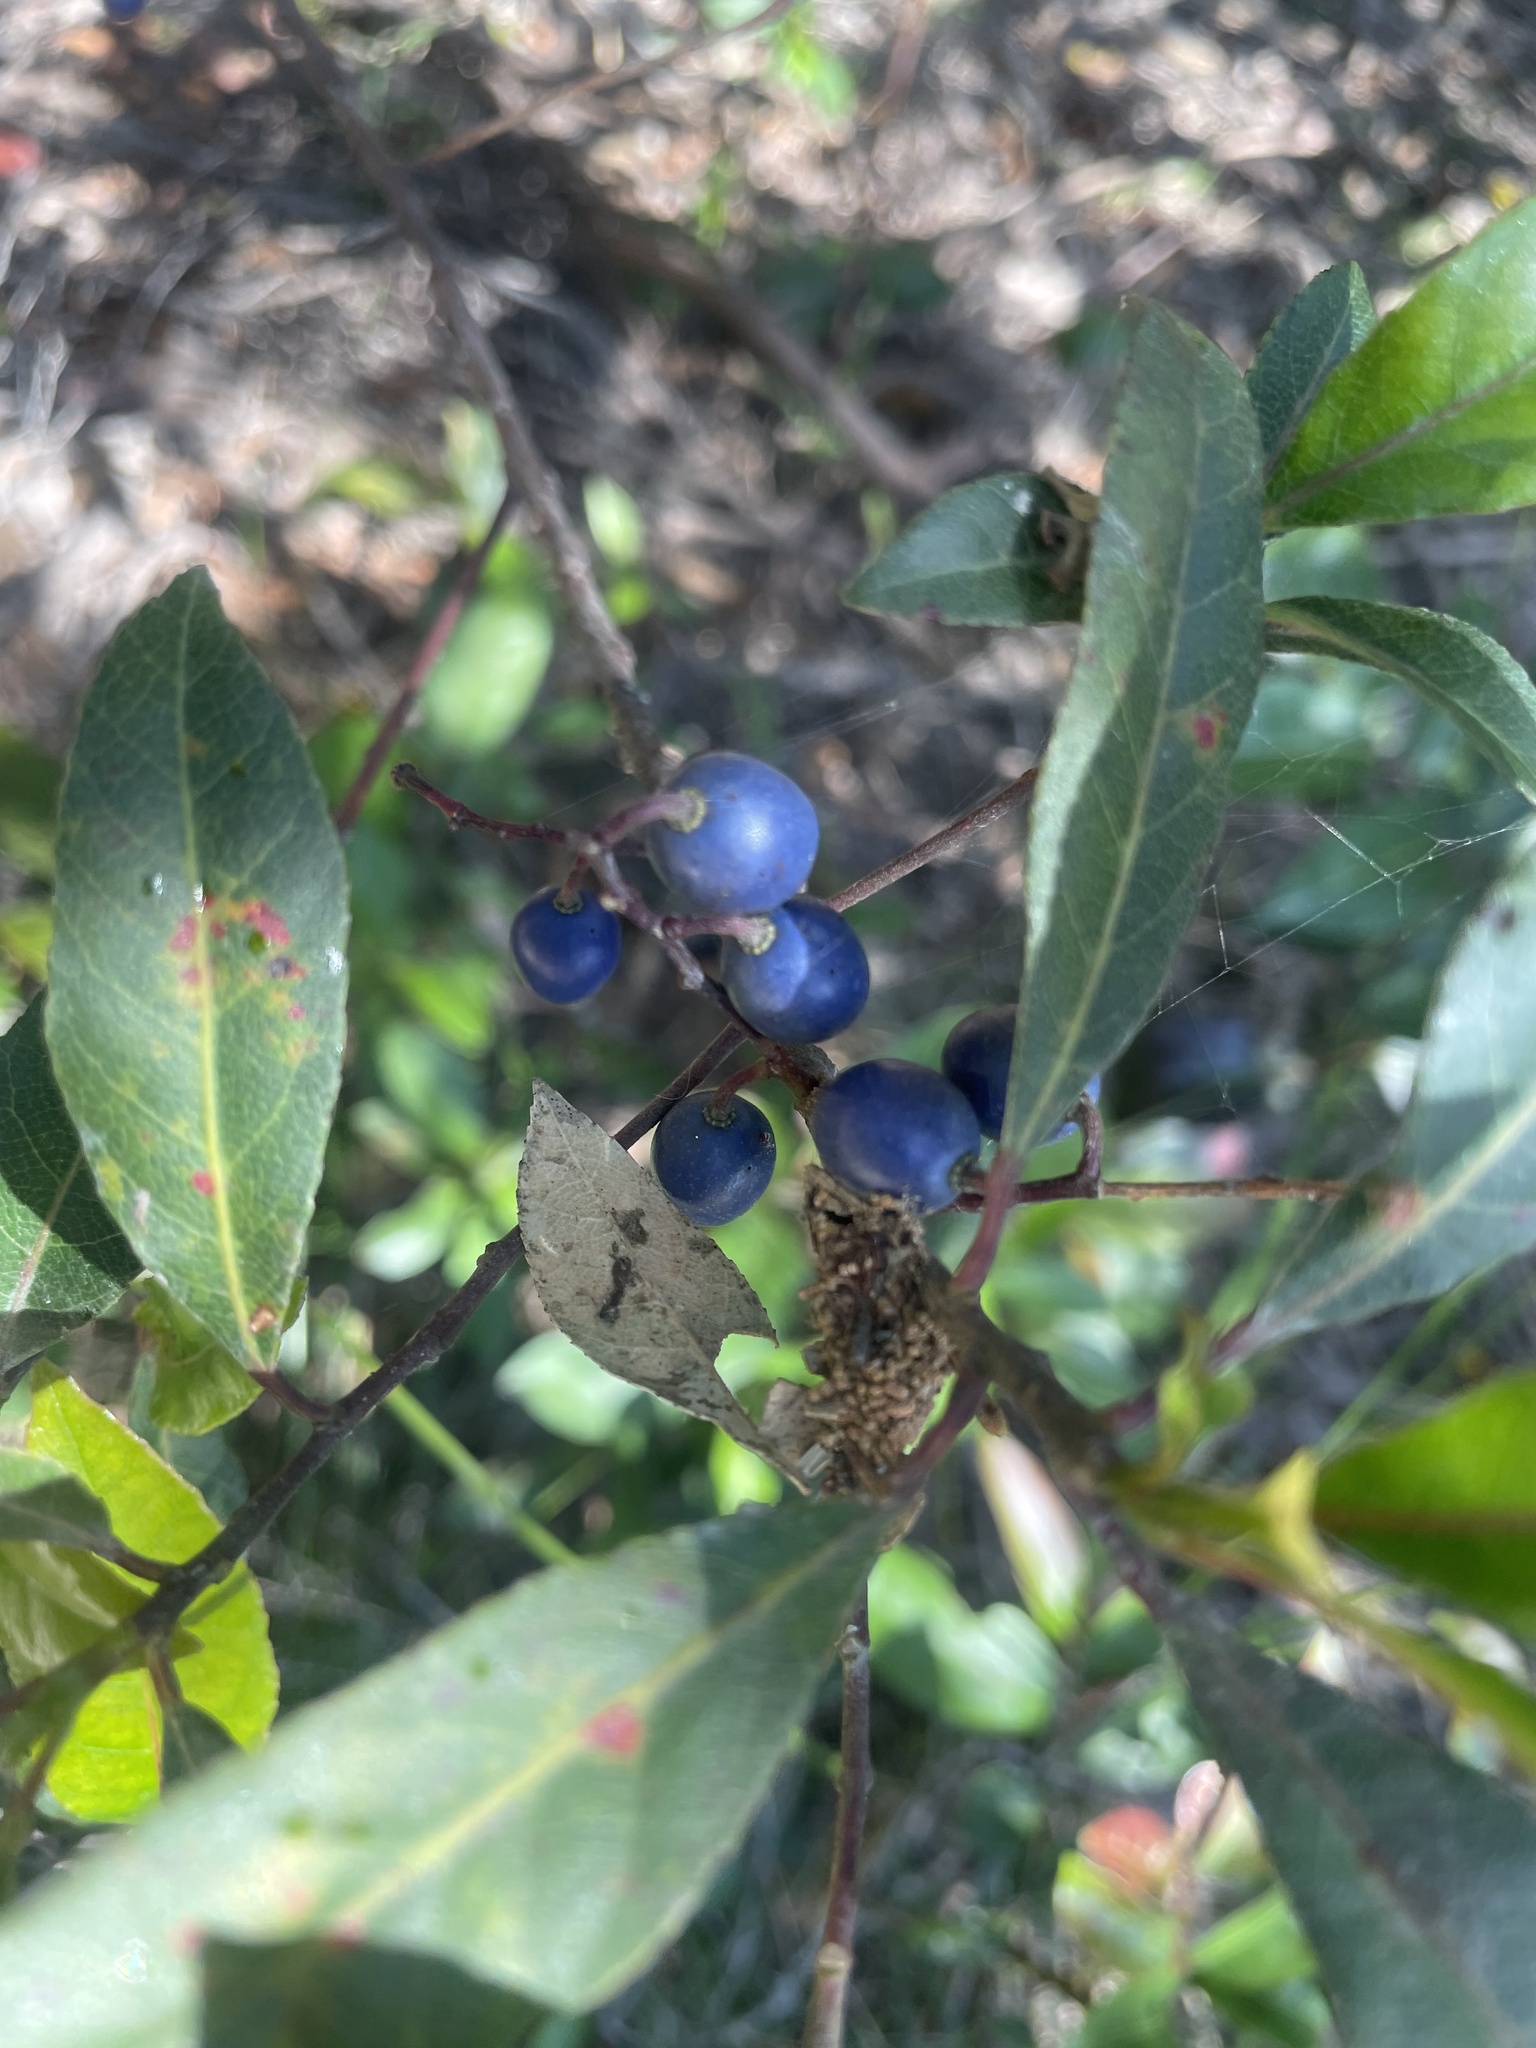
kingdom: Plantae
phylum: Tracheophyta
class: Magnoliopsida
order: Oxalidales
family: Elaeocarpaceae
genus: Elaeocarpus
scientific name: Elaeocarpus reticulatus
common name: Ash quandong
